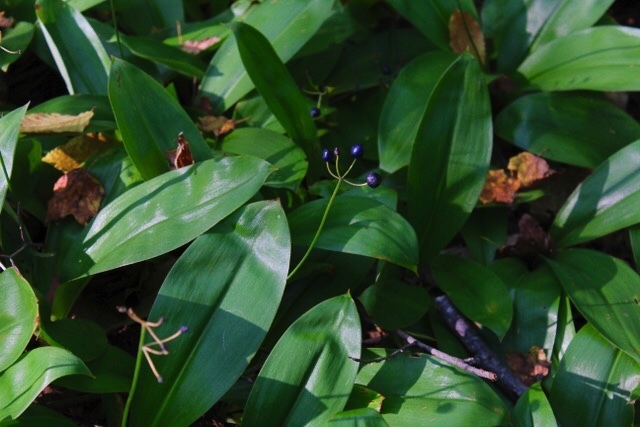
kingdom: Plantae
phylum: Tracheophyta
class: Liliopsida
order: Liliales
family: Liliaceae
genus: Clintonia
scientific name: Clintonia borealis
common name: Yellow clintonia
